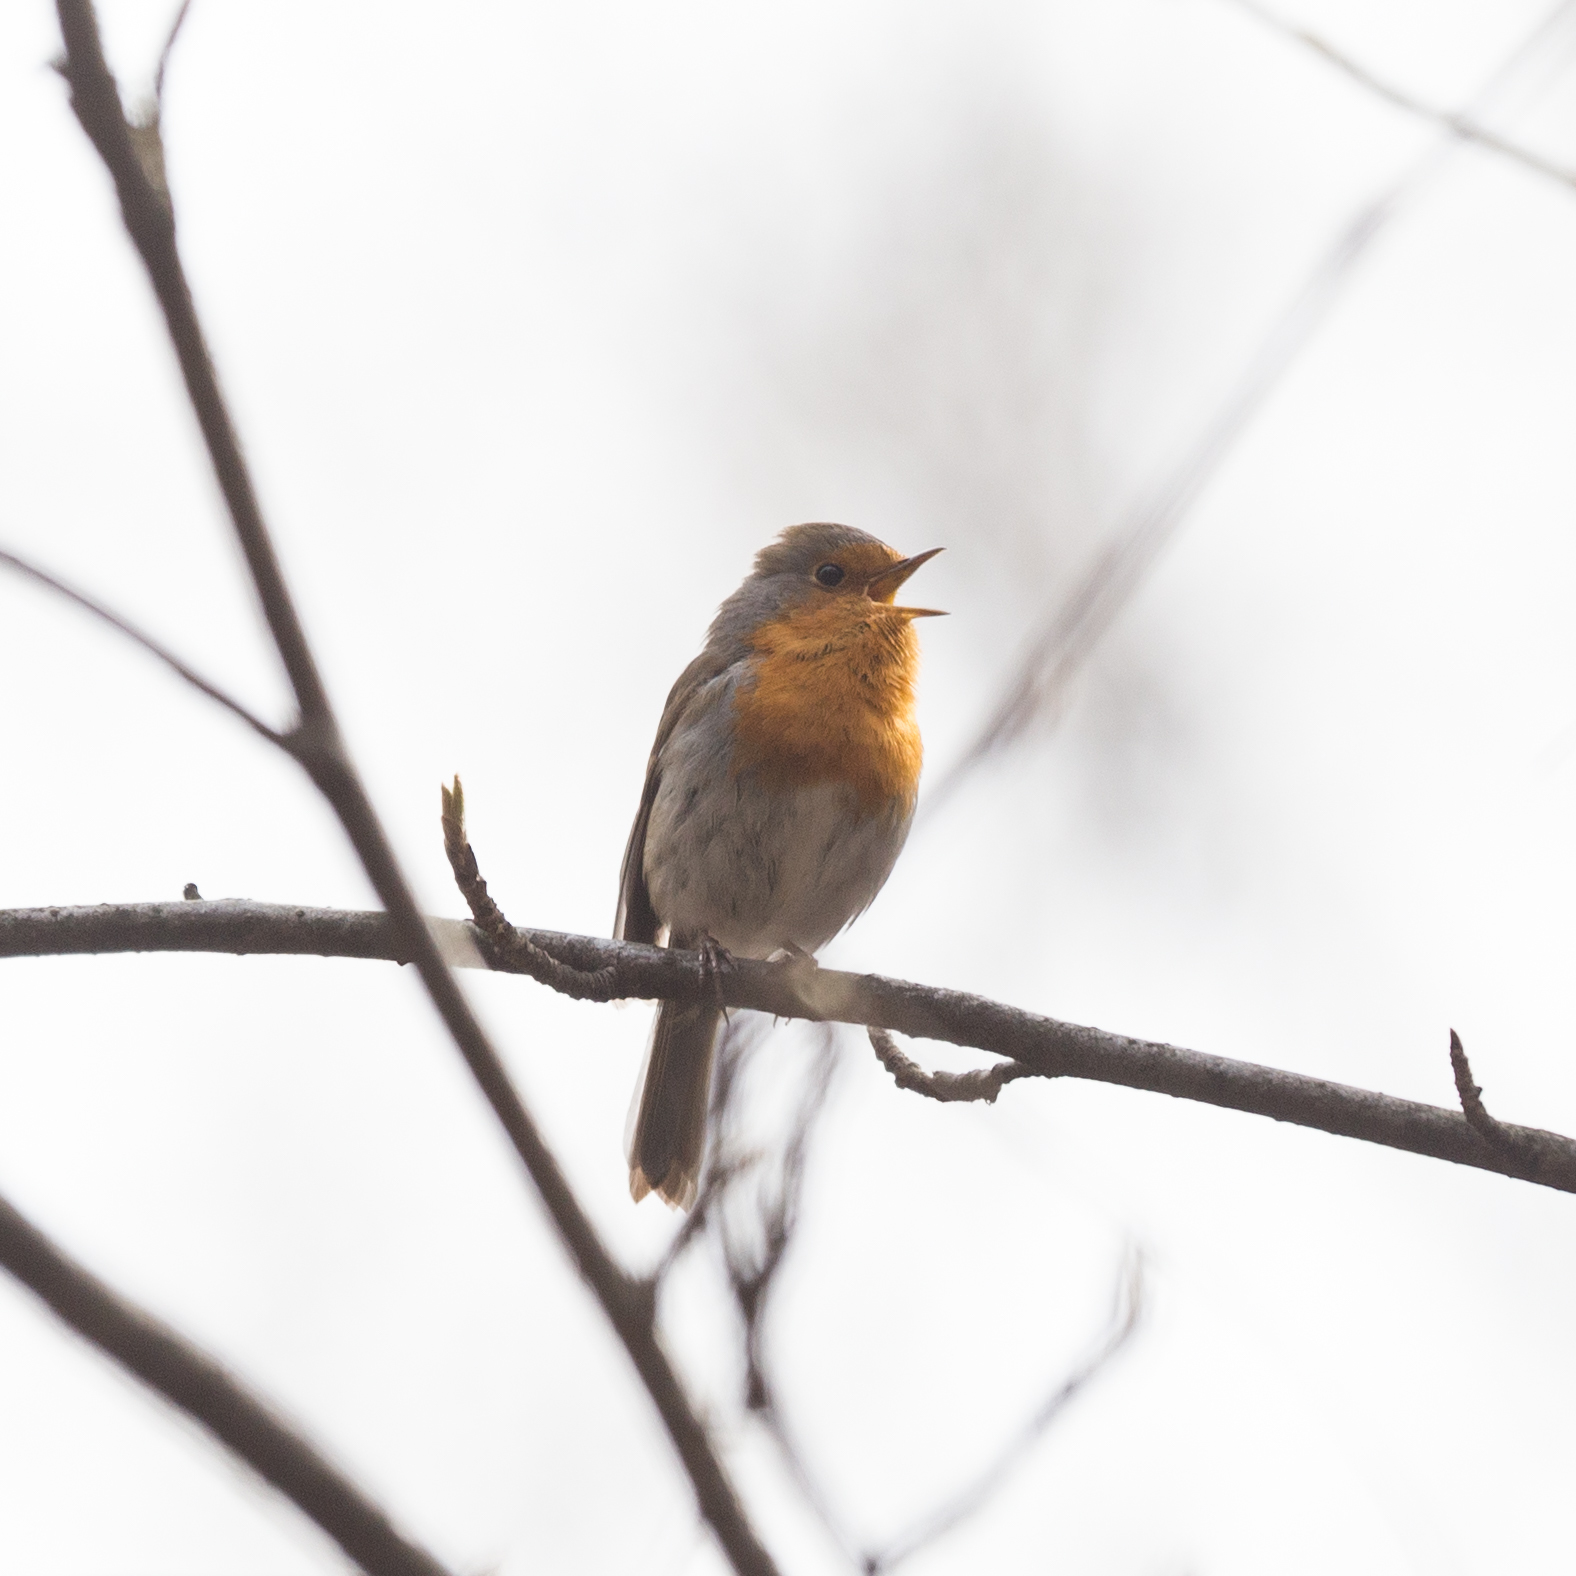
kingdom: Animalia
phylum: Chordata
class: Aves
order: Passeriformes
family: Muscicapidae
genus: Erithacus
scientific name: Erithacus rubecula
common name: European robin
